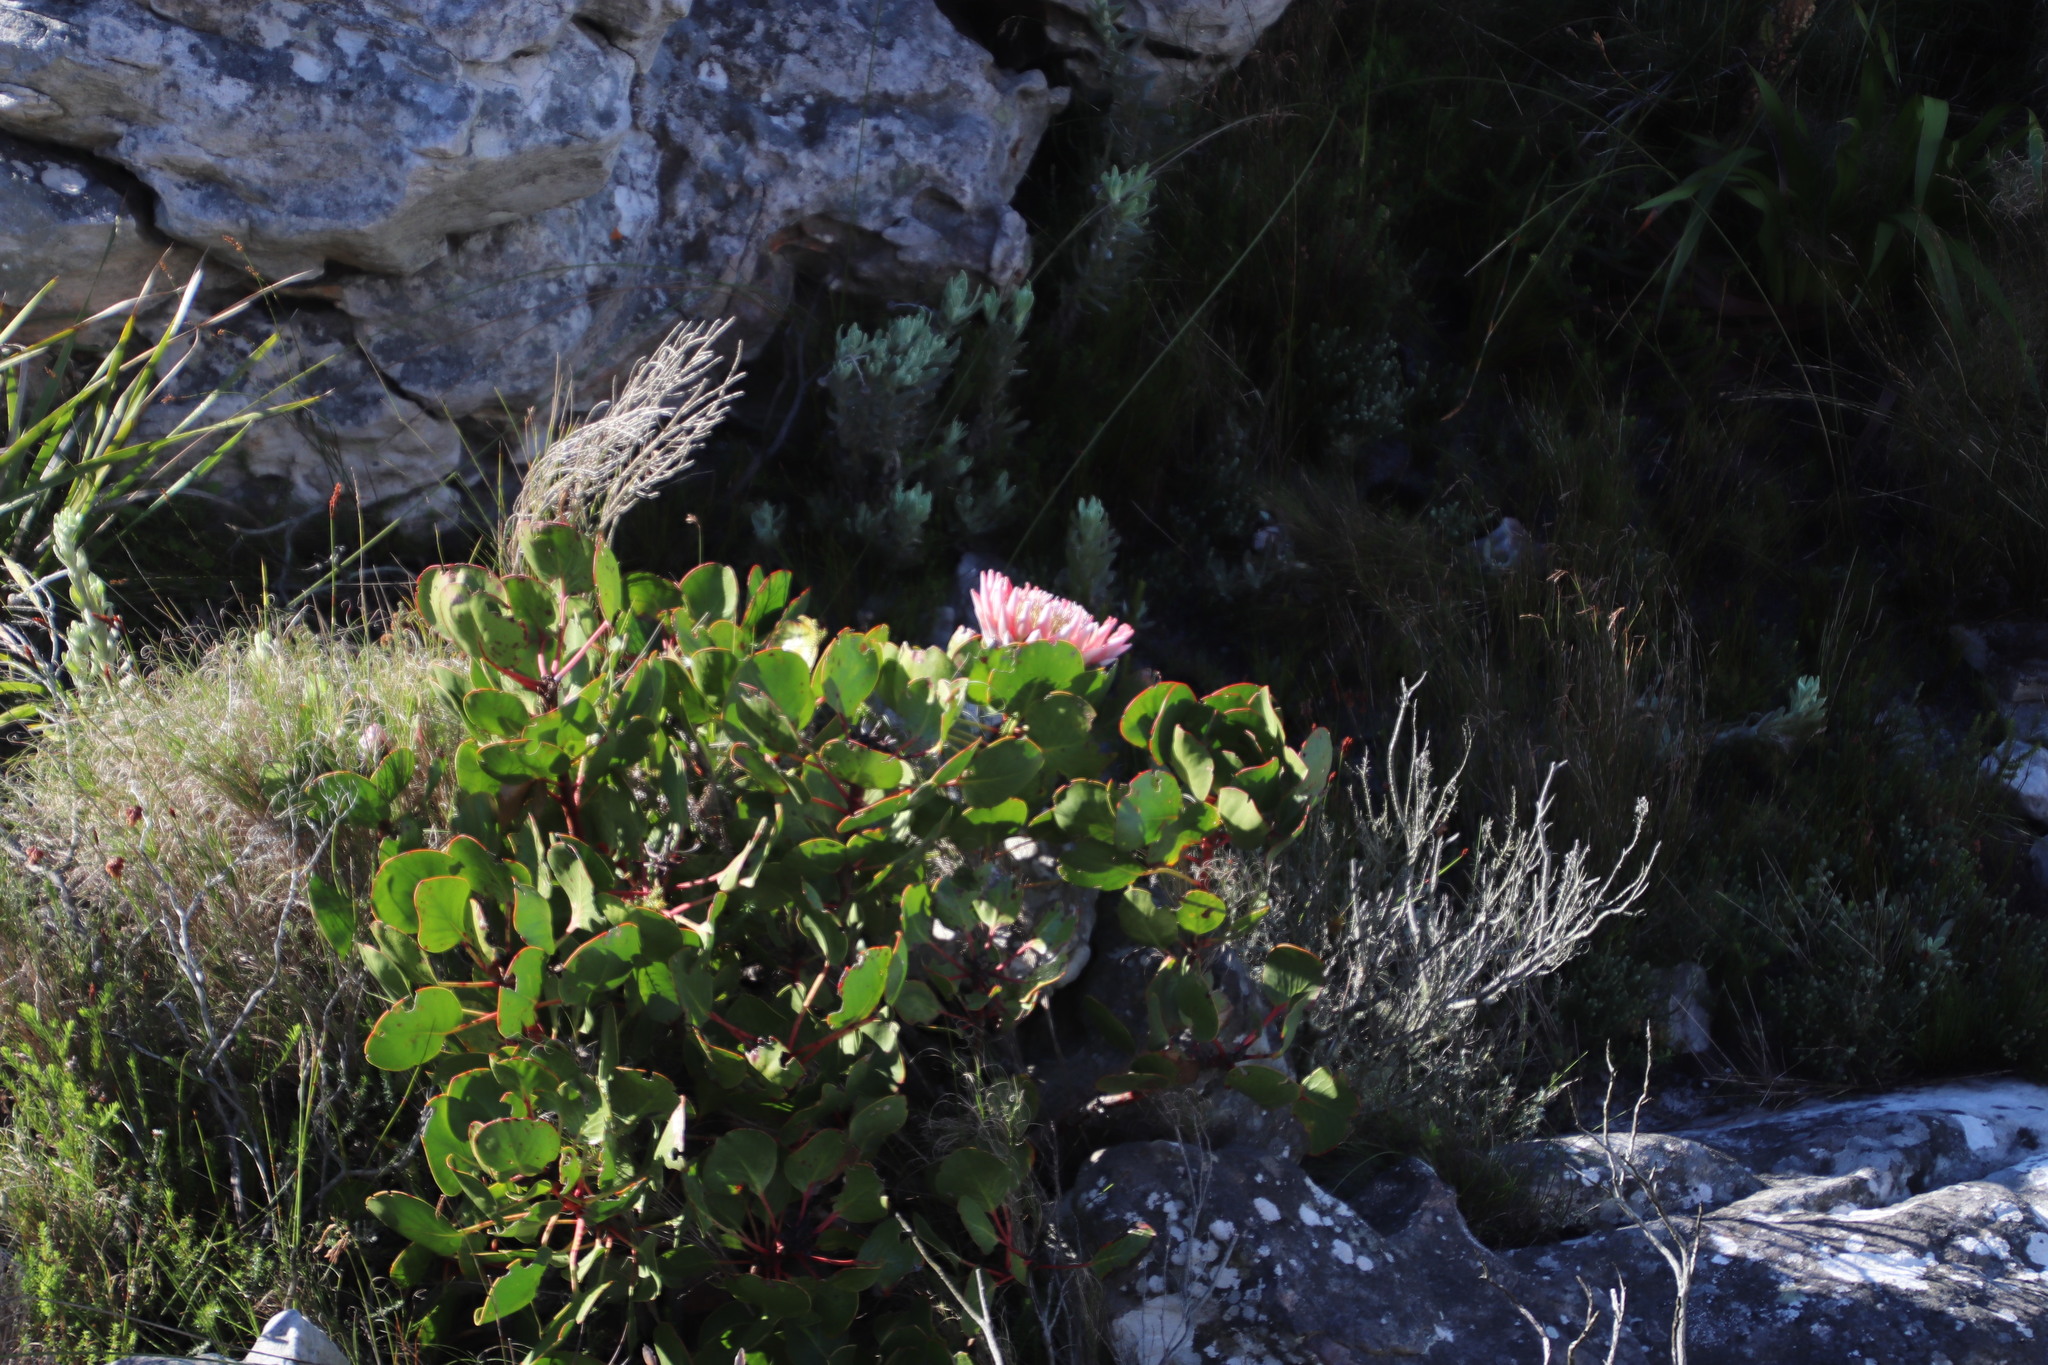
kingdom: Plantae
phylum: Tracheophyta
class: Magnoliopsida
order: Proteales
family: Proteaceae
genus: Protea
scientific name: Protea cynaroides
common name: King protea
